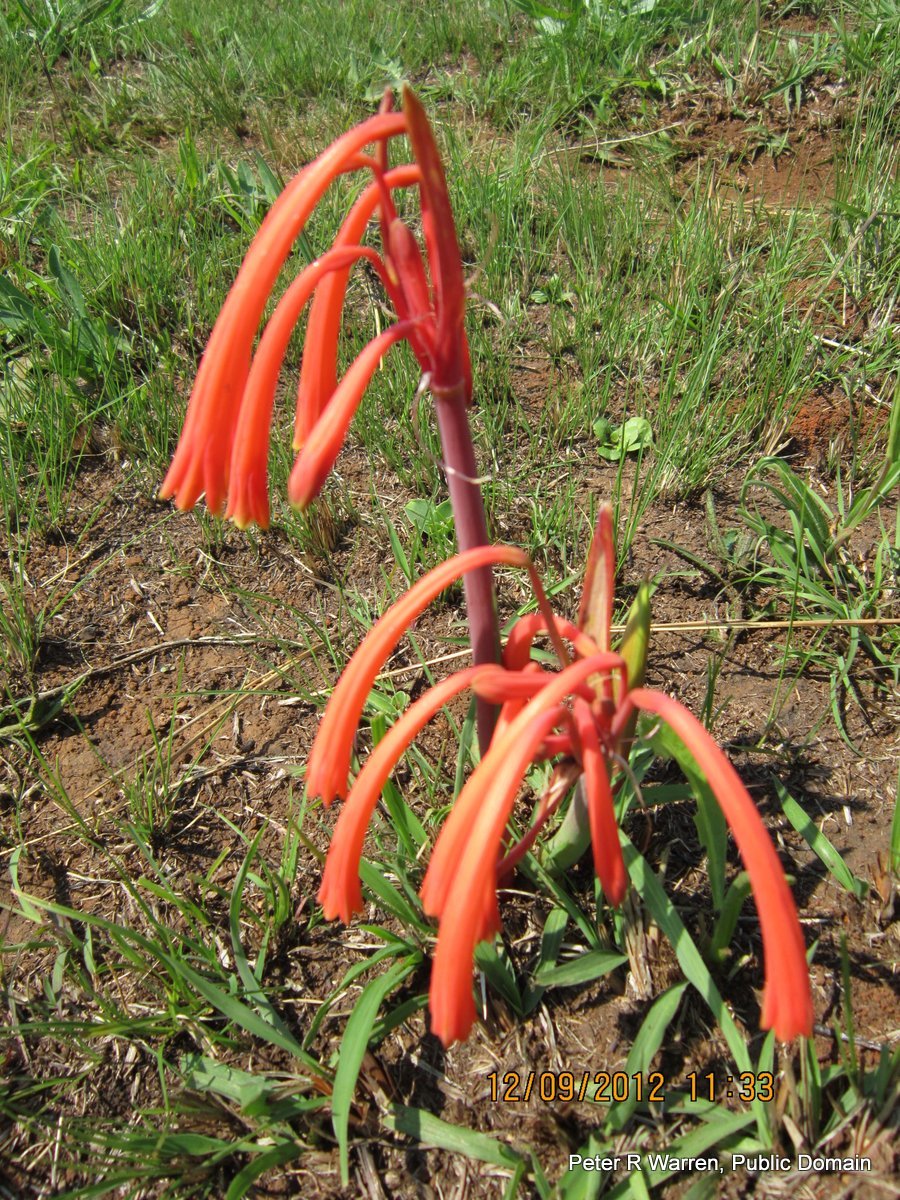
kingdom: Plantae
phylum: Tracheophyta
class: Liliopsida
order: Asparagales
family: Amaryllidaceae
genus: Cyrtanthus
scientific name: Cyrtanthus tuckii
